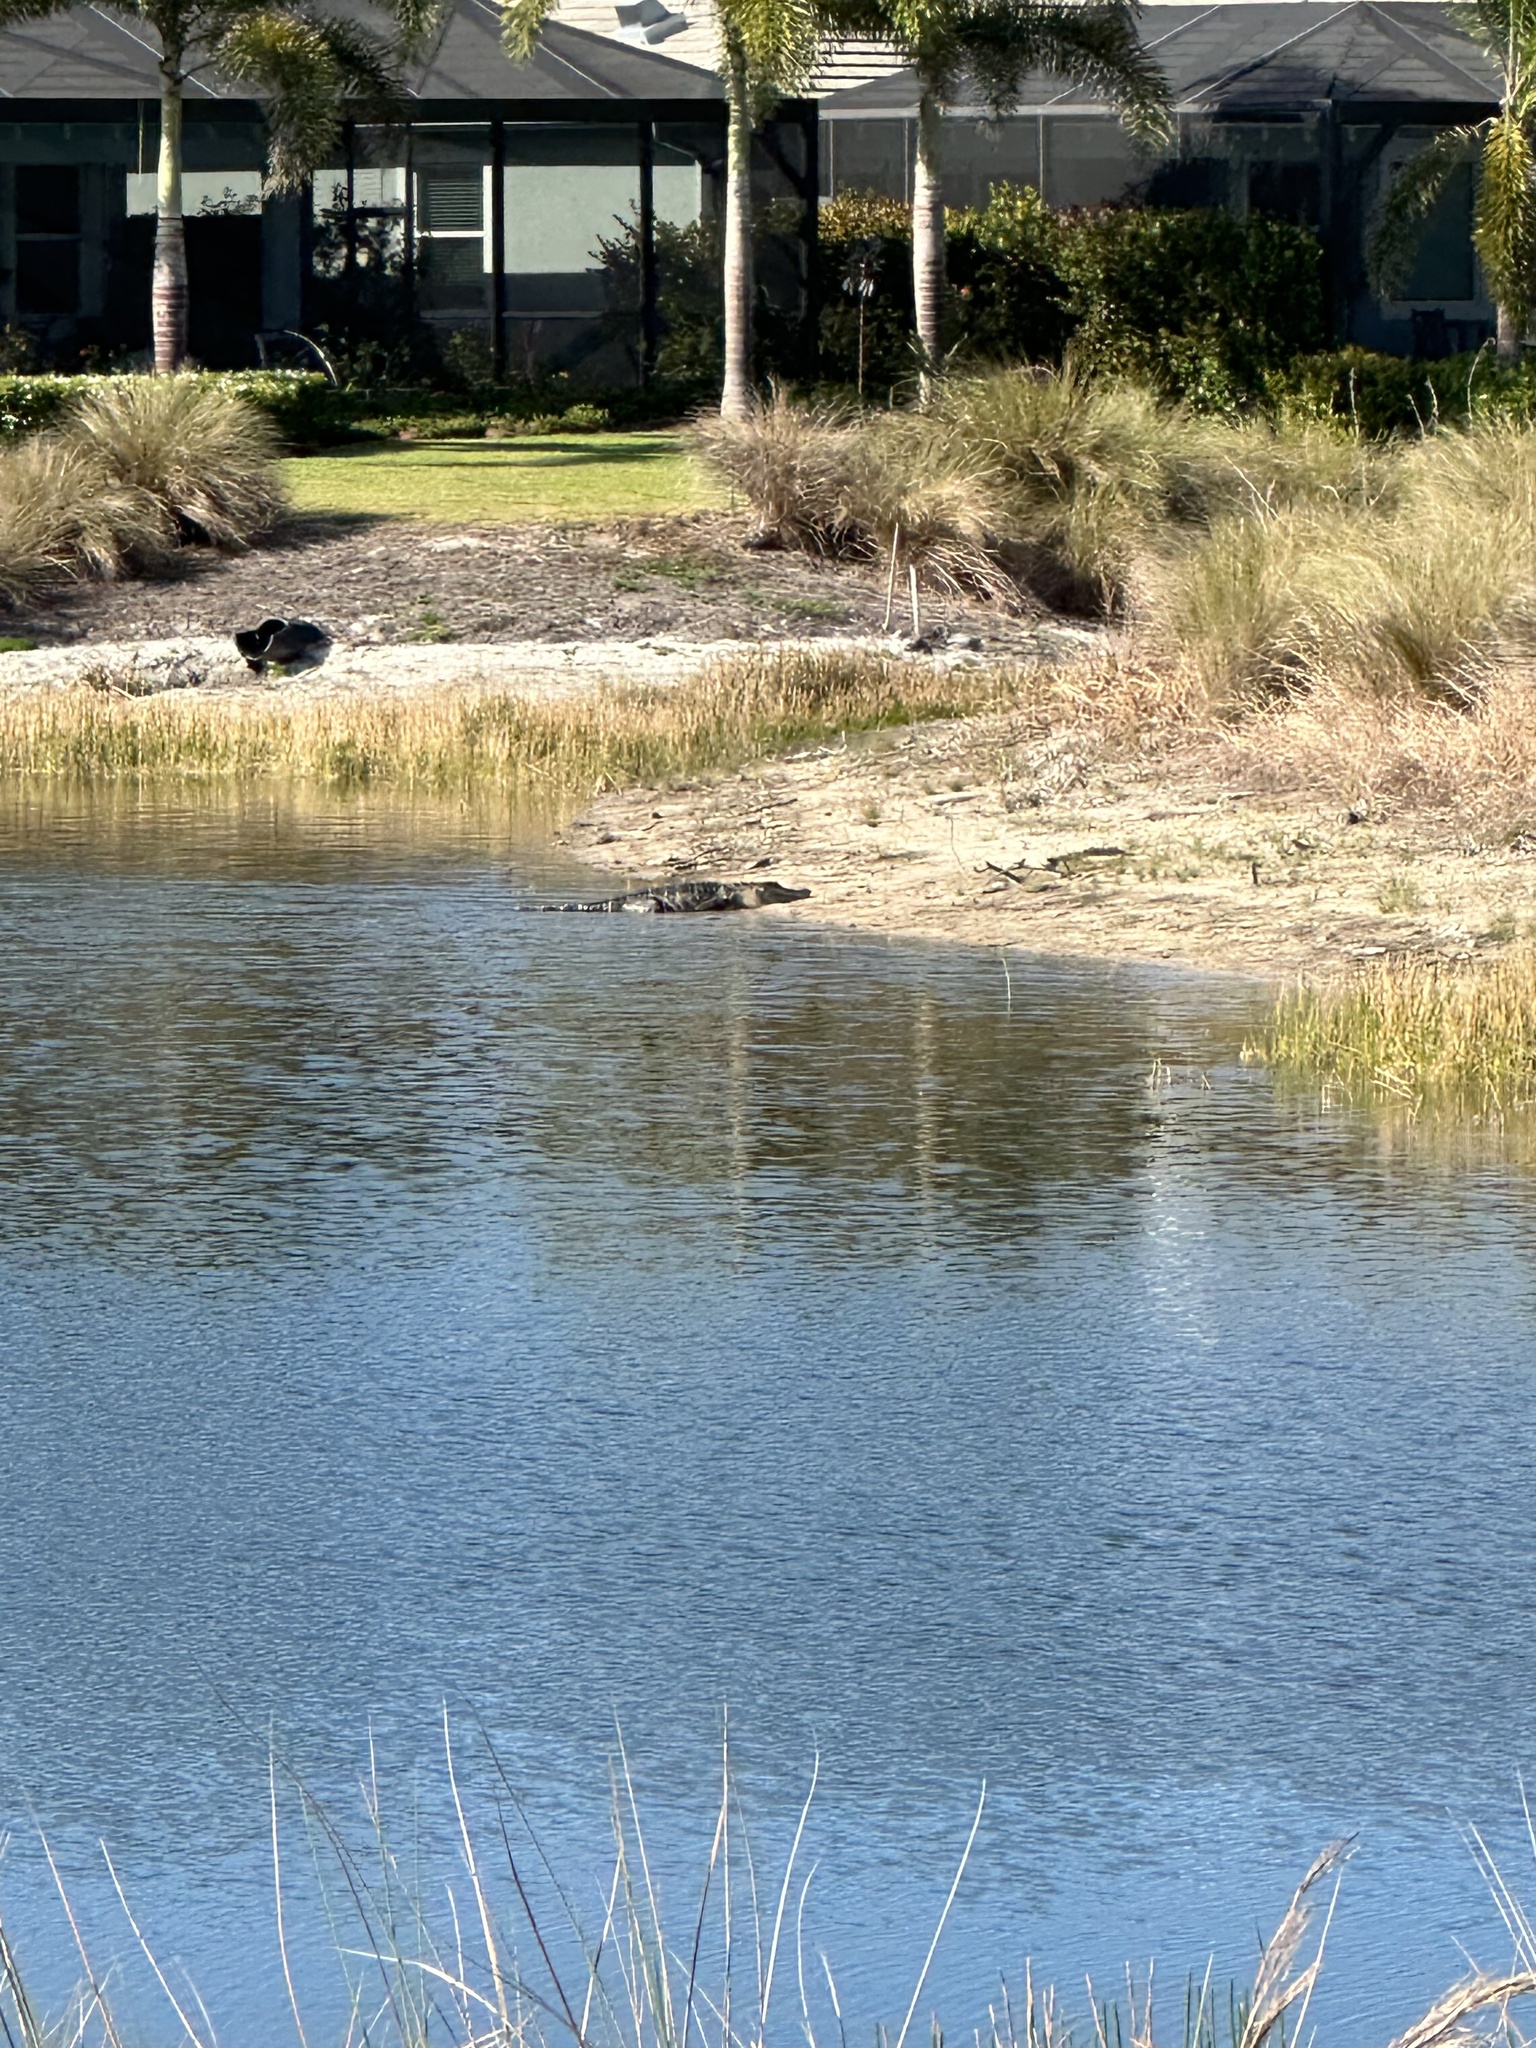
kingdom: Animalia
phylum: Chordata
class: Crocodylia
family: Alligatoridae
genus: Alligator
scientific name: Alligator mississippiensis
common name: American alligator
